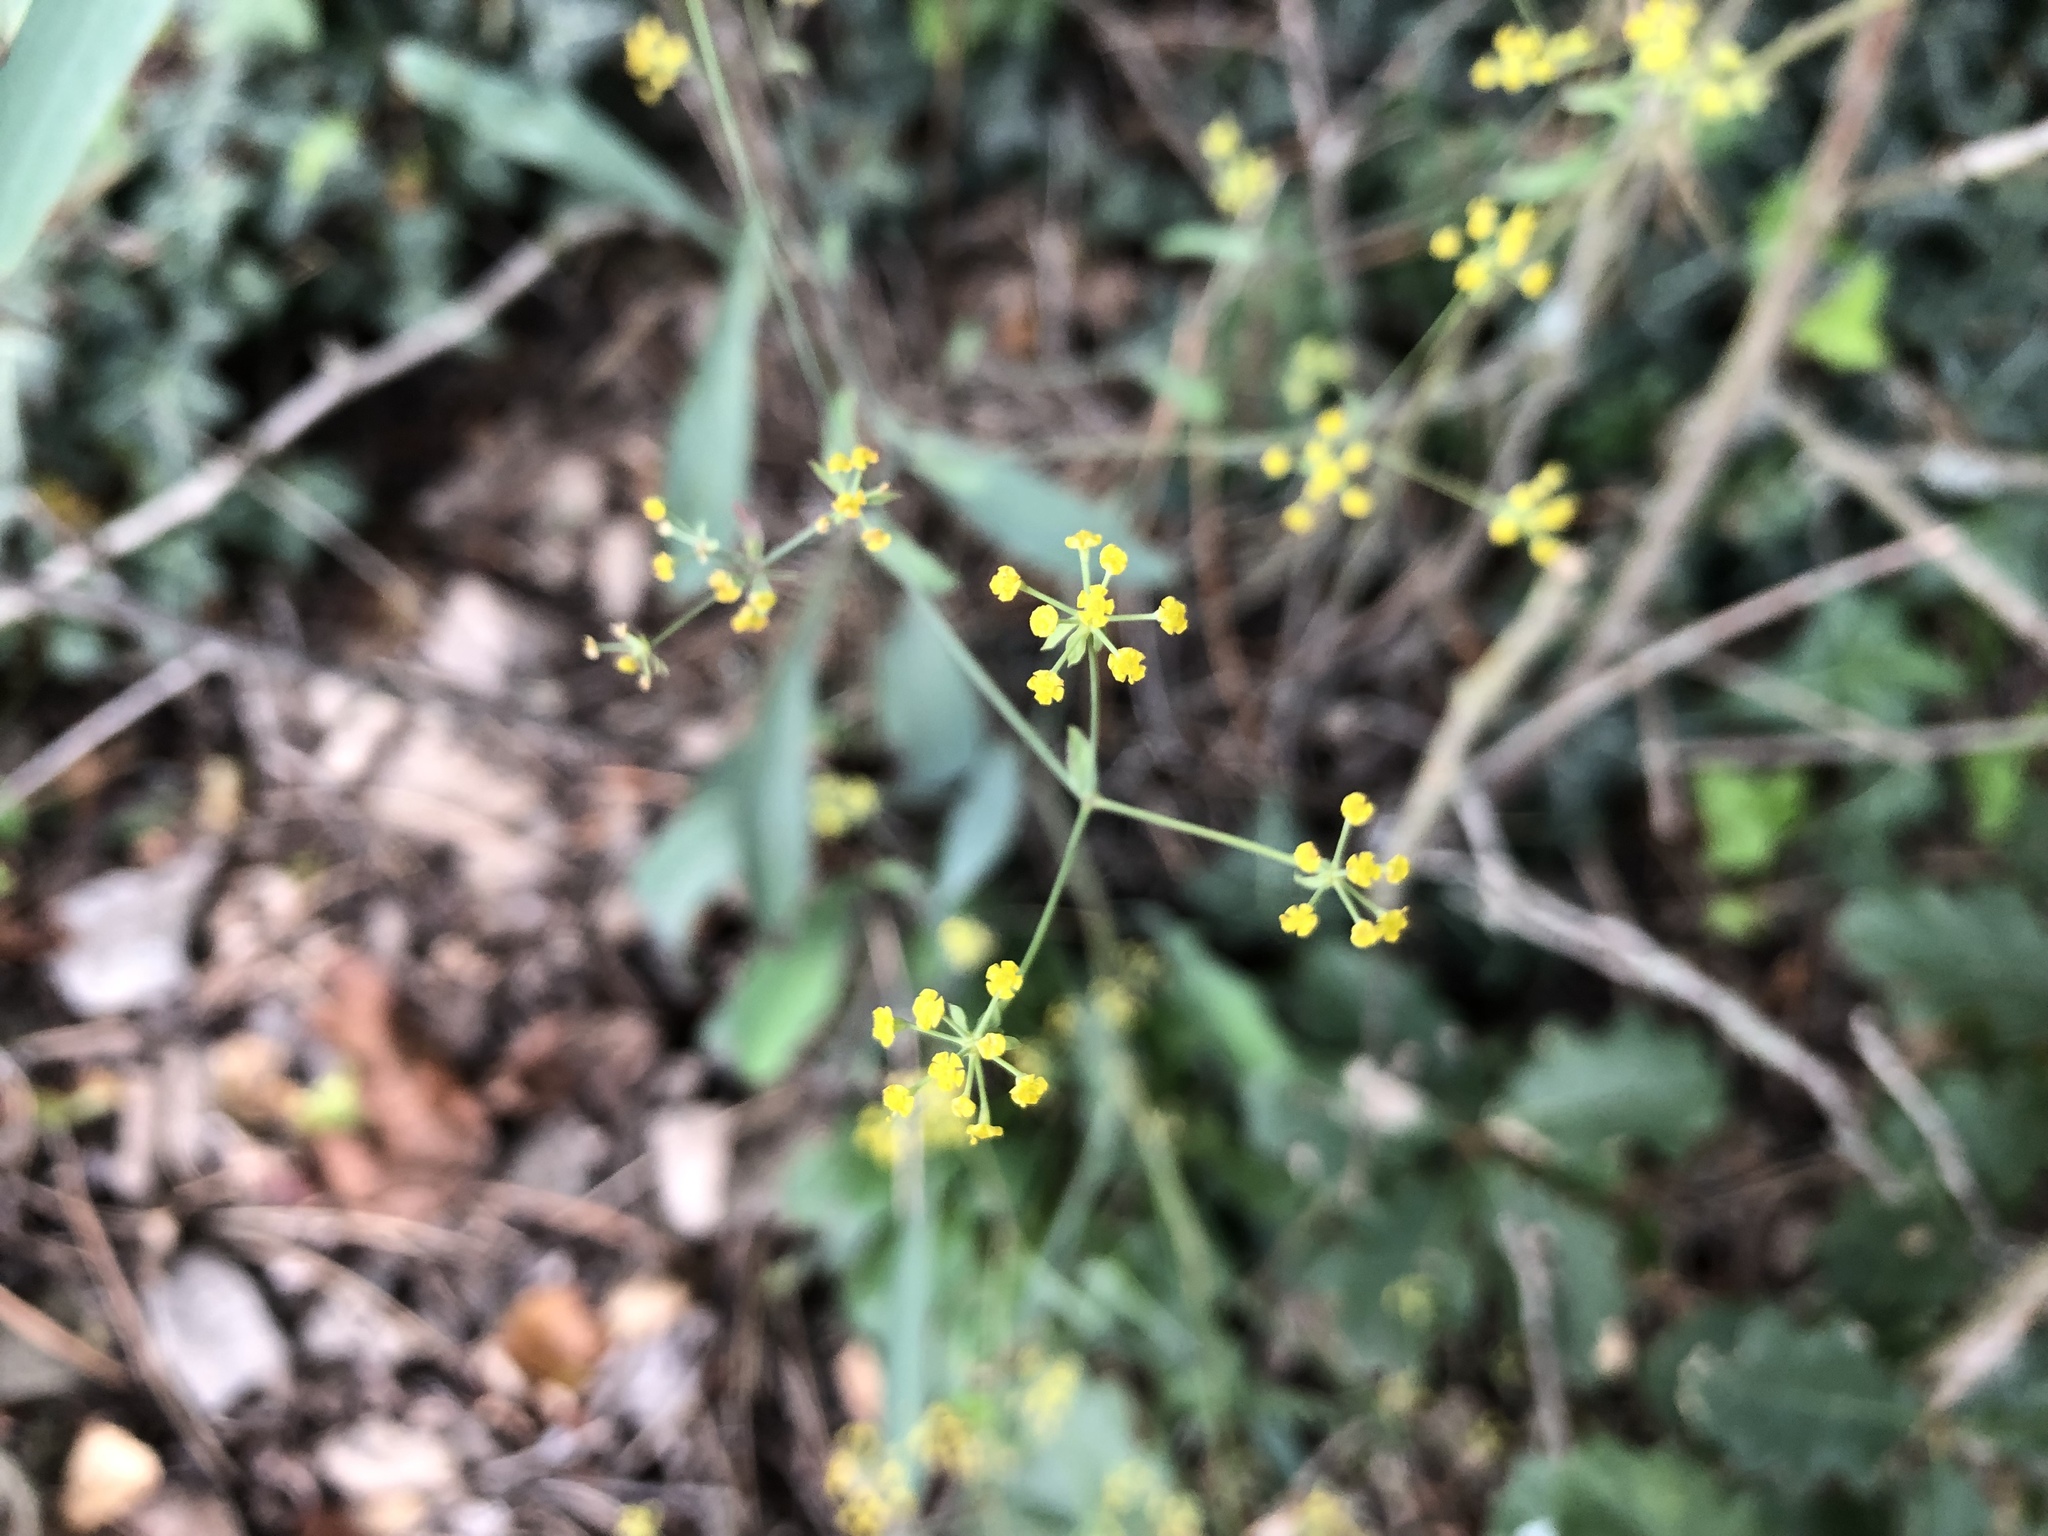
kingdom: Plantae
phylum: Tracheophyta
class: Magnoliopsida
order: Apiales
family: Apiaceae
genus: Bupleurum
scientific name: Bupleurum falcatum
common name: Sickle-leaved hare's-ear
